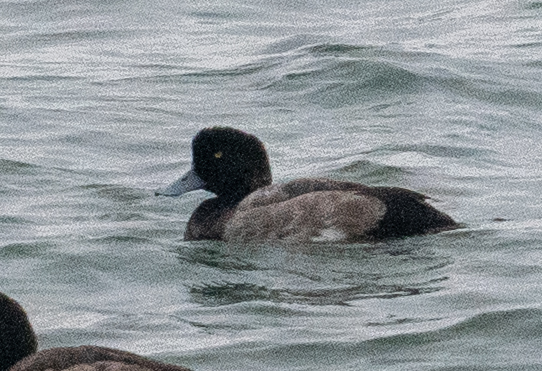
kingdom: Animalia
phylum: Chordata
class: Aves
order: Anseriformes
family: Anatidae
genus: Aythya
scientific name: Aythya marila
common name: Greater scaup
